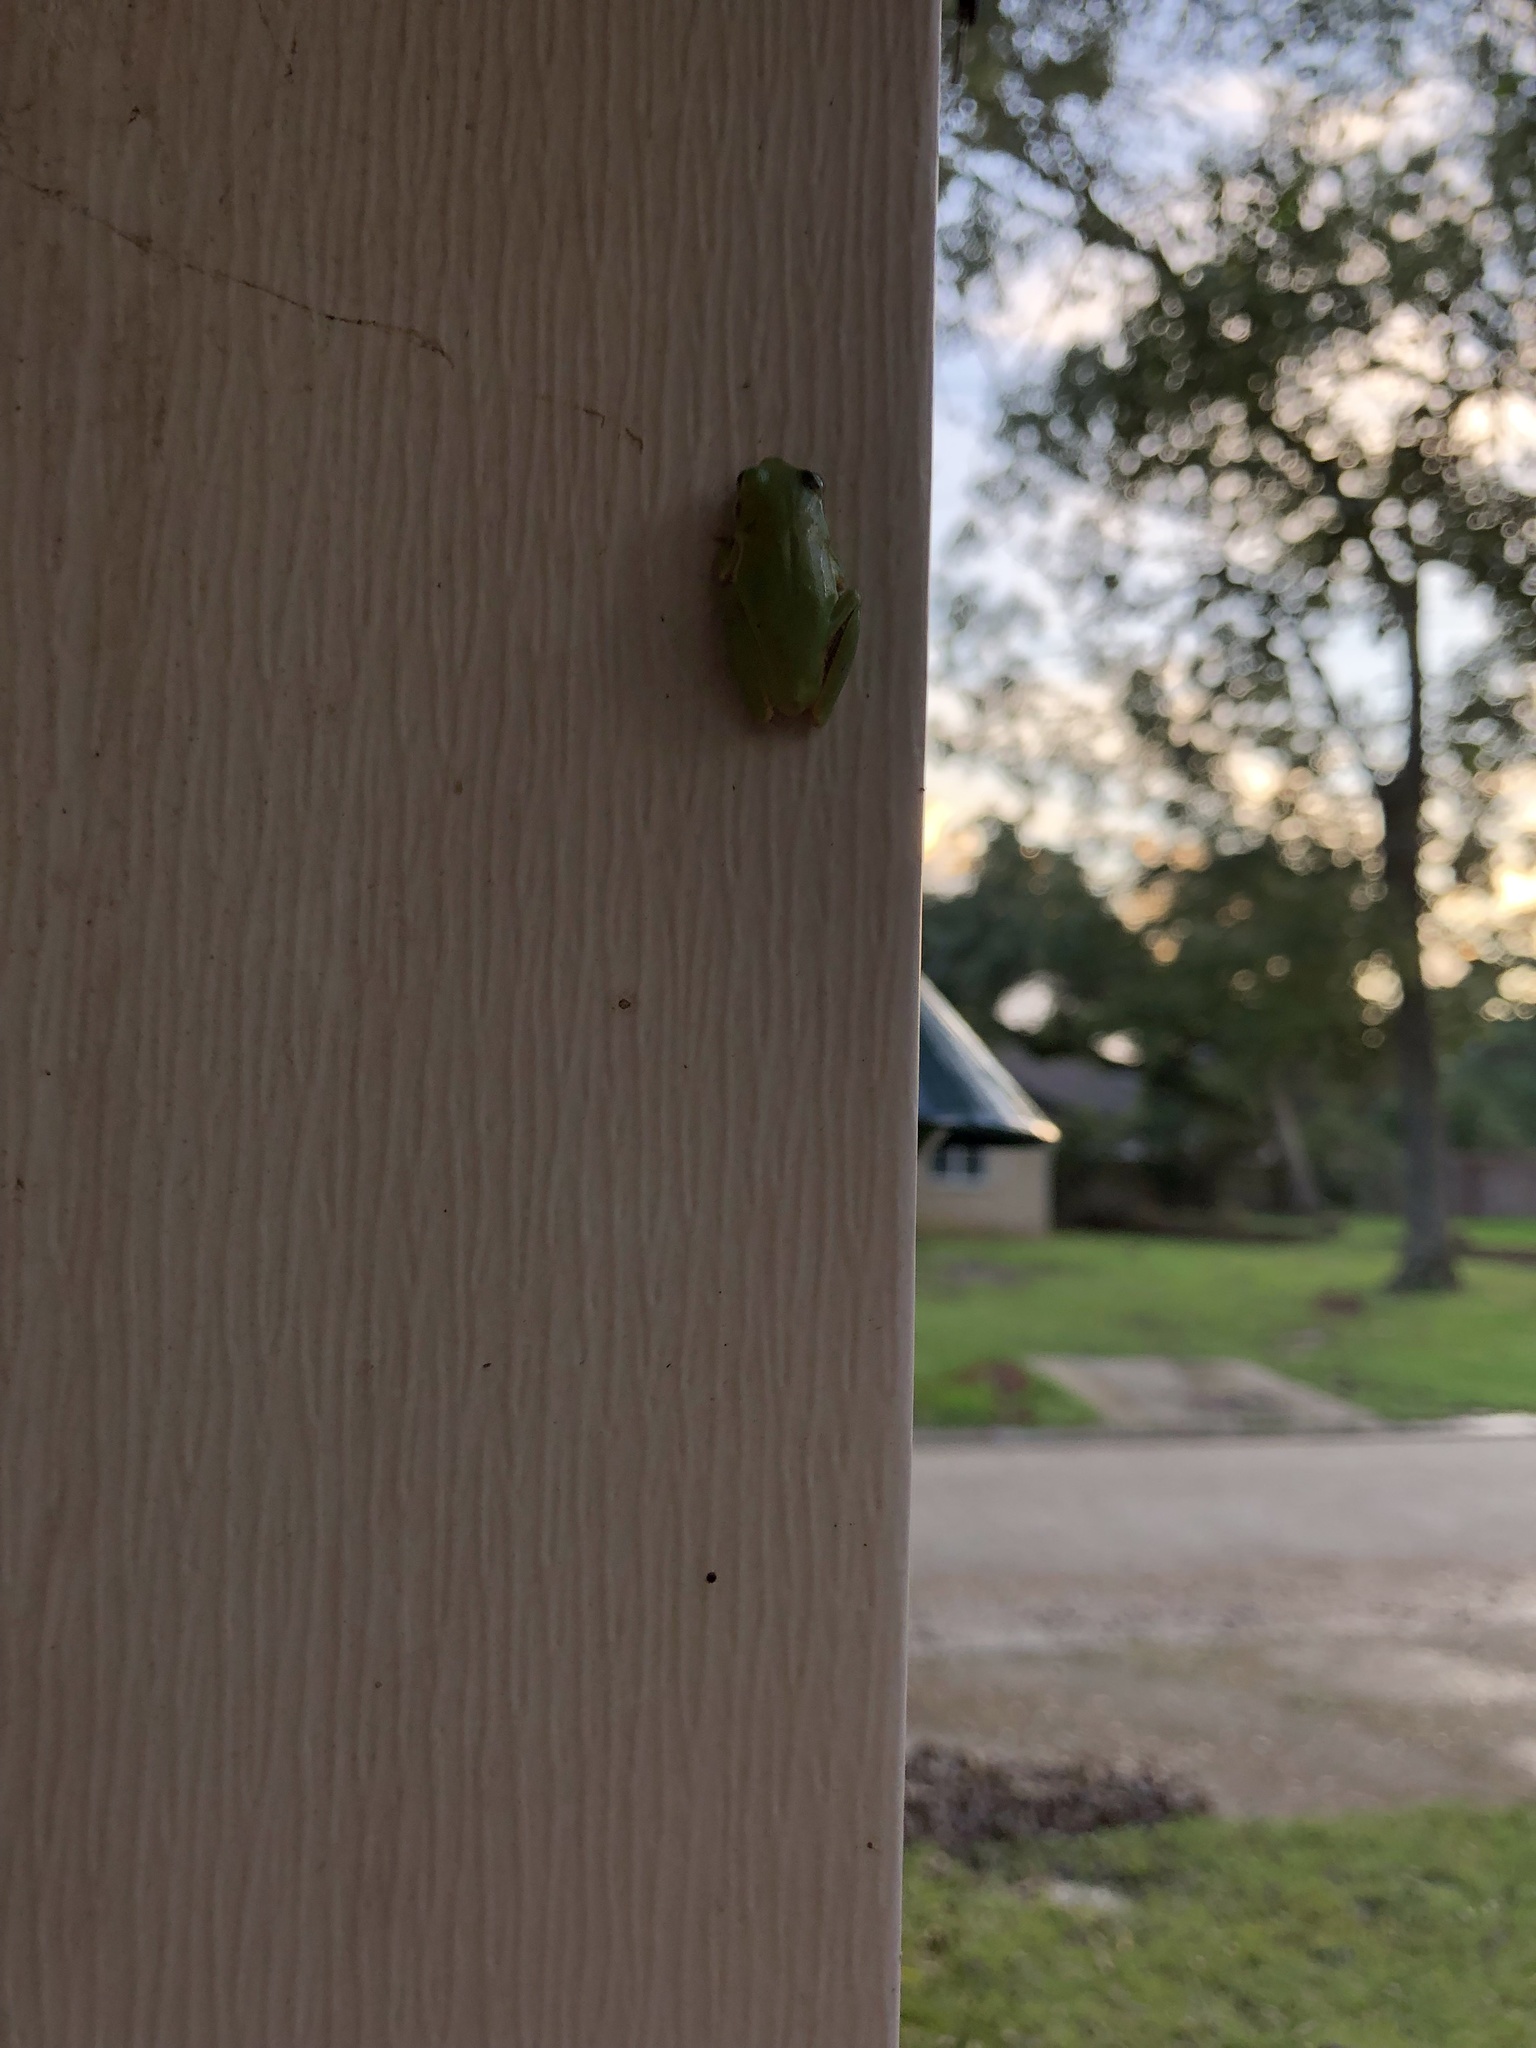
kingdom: Animalia
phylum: Chordata
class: Amphibia
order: Anura
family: Hylidae
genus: Dryophytes
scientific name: Dryophytes squirellus
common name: Squirrel treefrog
